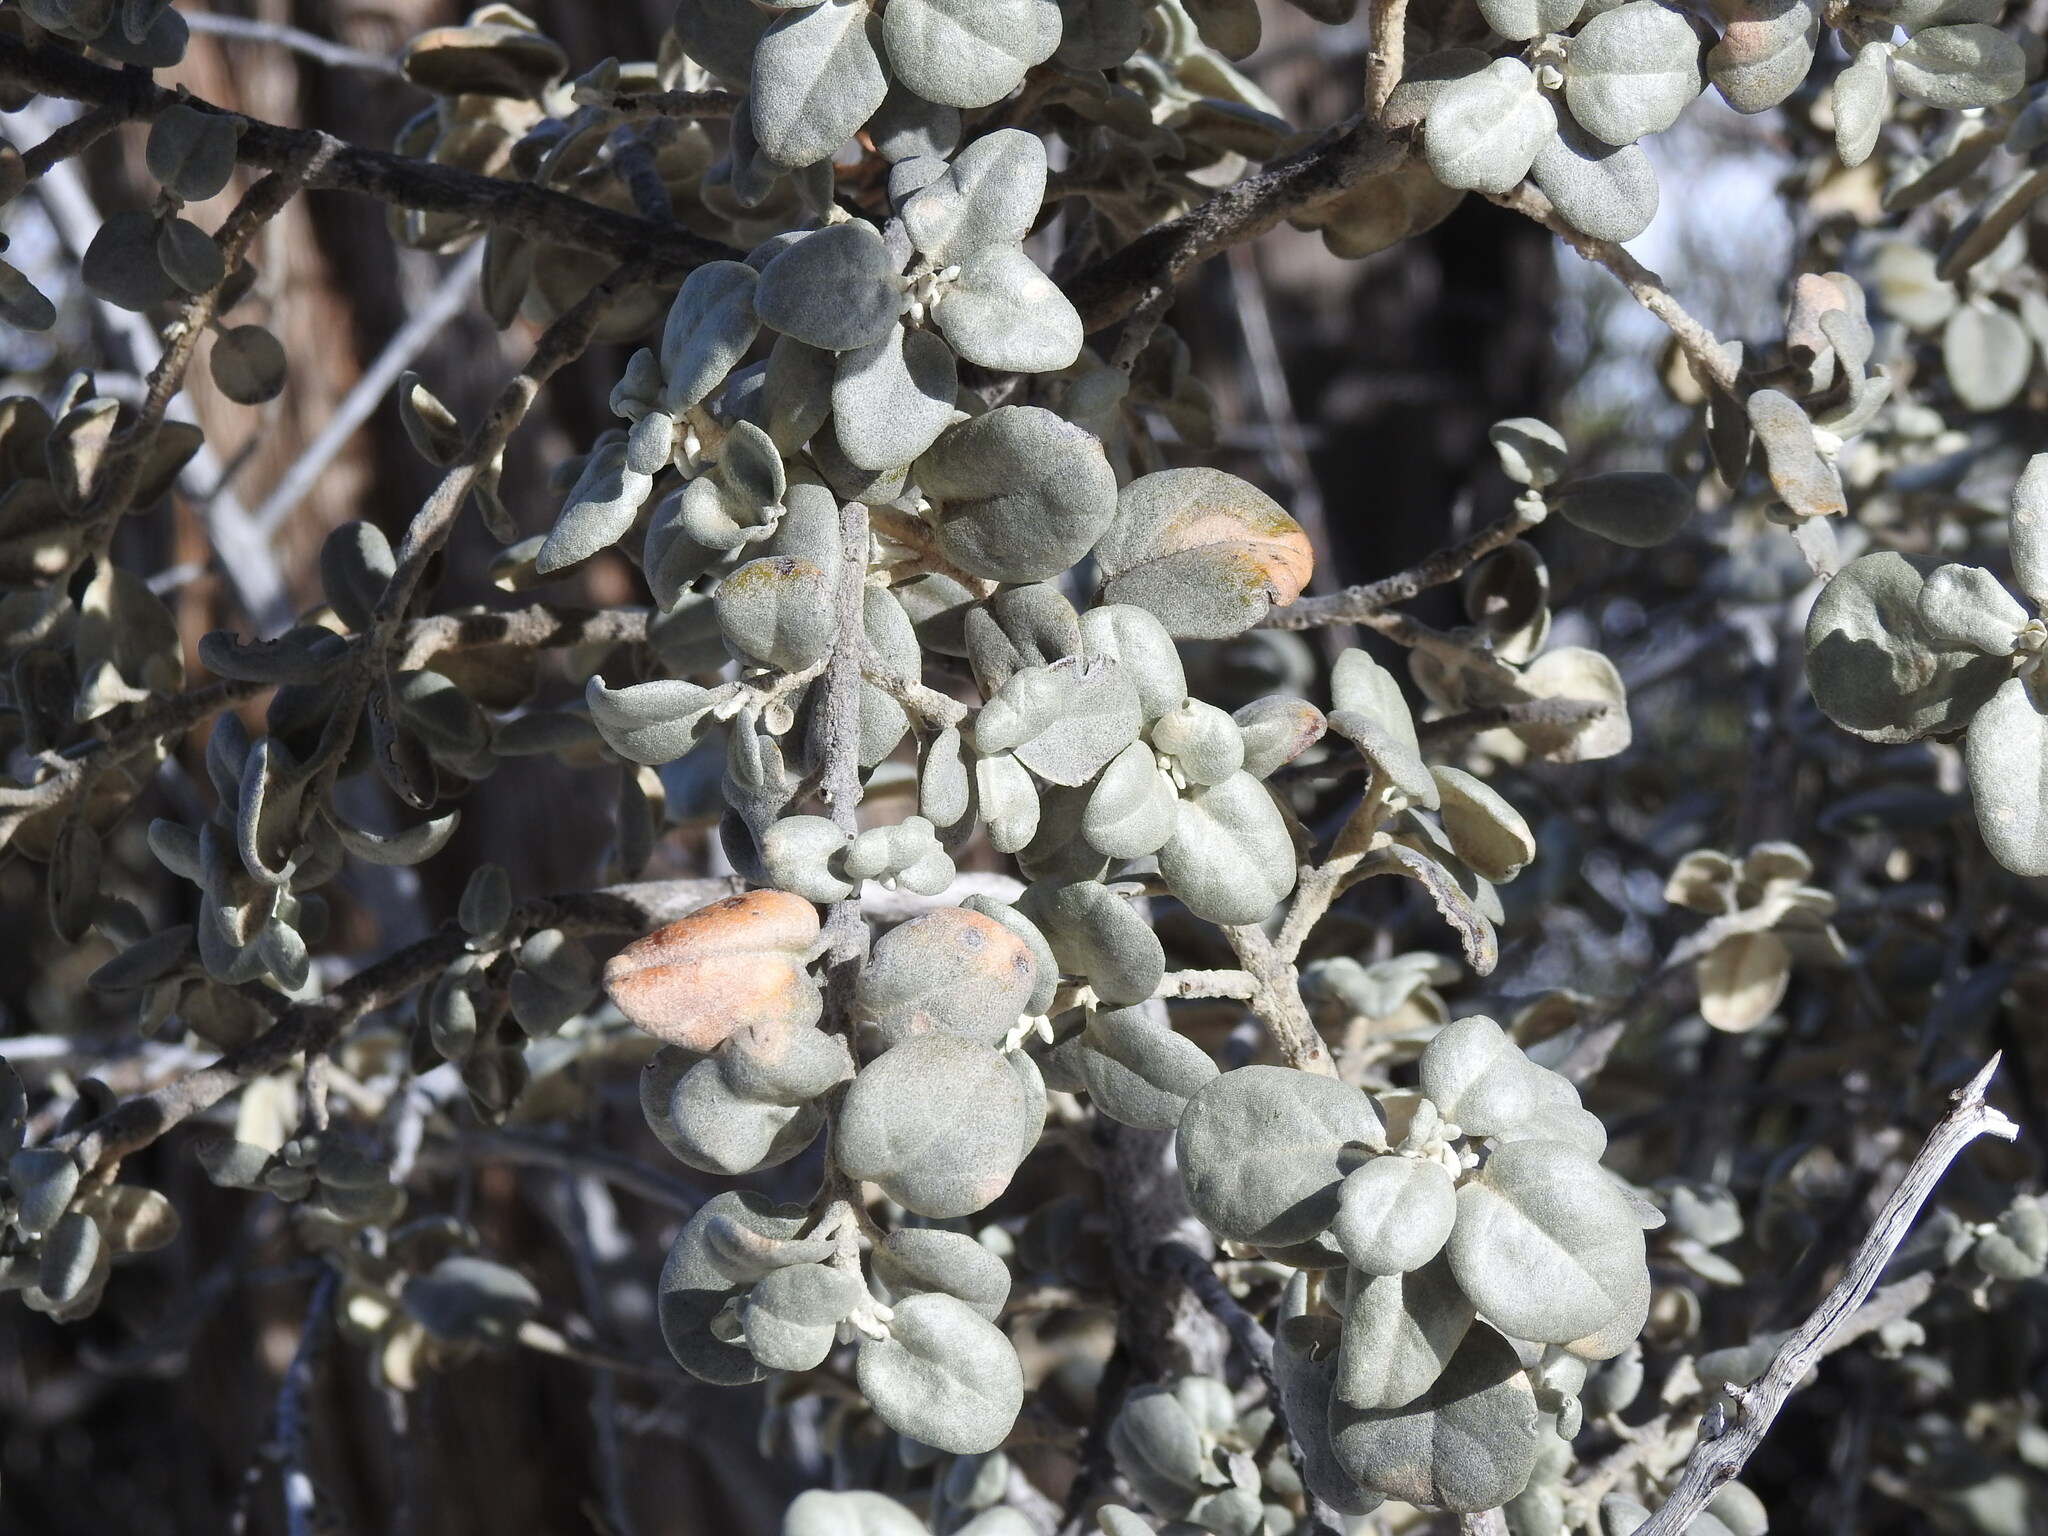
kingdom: Plantae
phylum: Tracheophyta
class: Magnoliopsida
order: Rosales
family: Elaeagnaceae
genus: Shepherdia
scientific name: Shepherdia rotundifolia
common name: Silverscale
